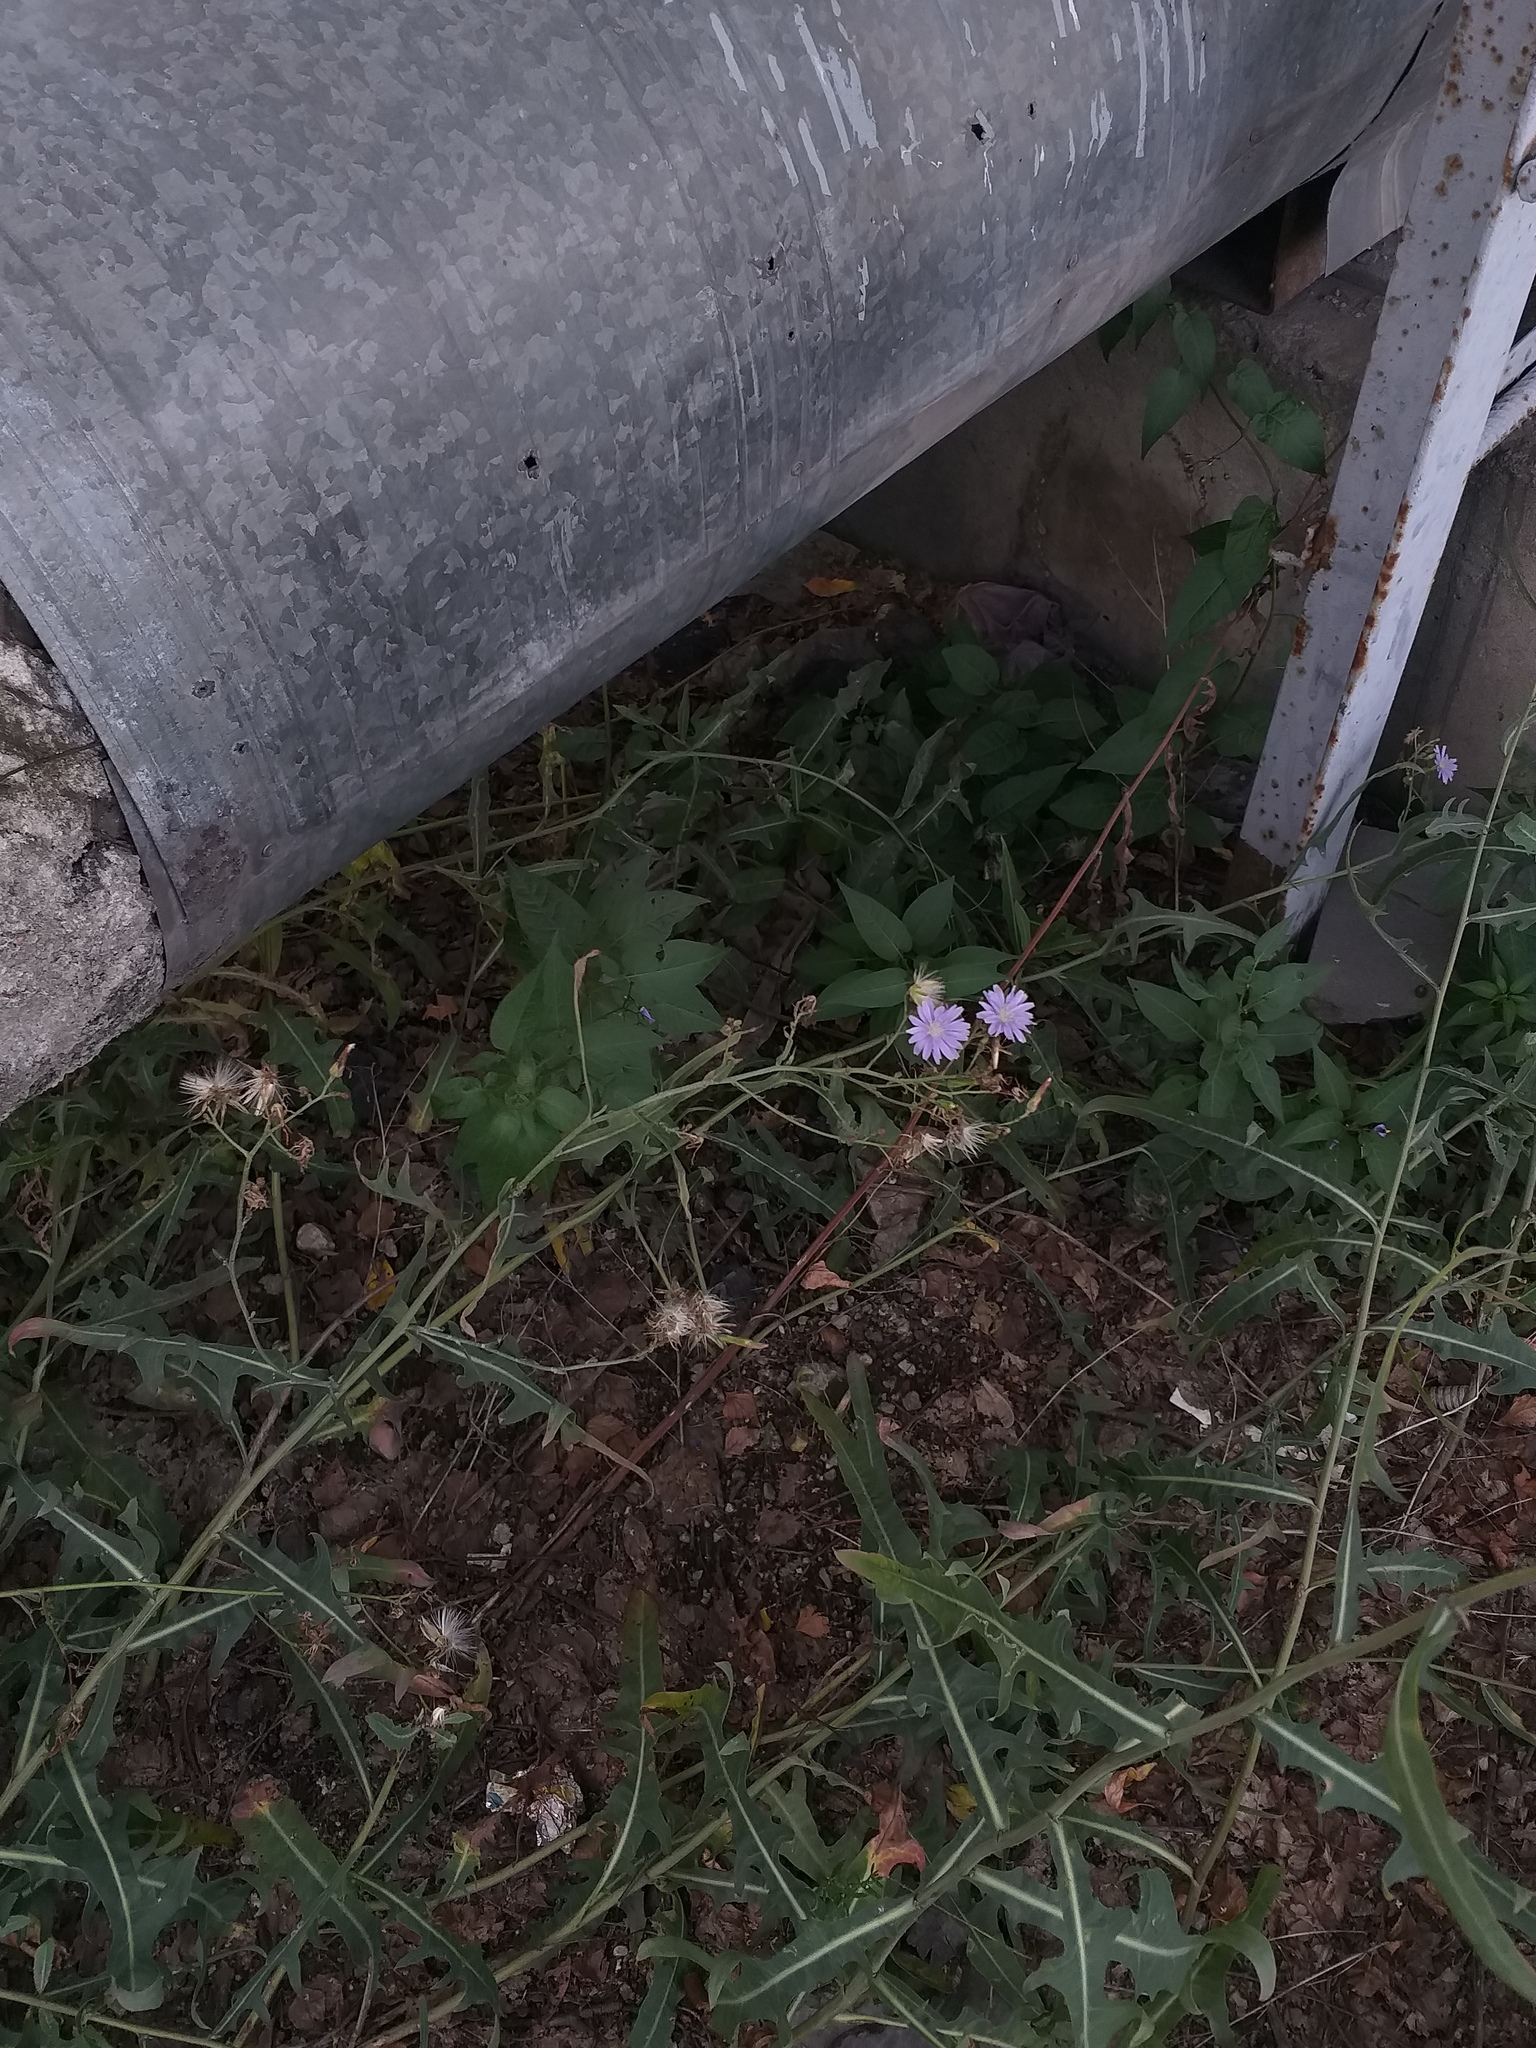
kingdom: Plantae
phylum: Tracheophyta
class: Magnoliopsida
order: Asterales
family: Asteraceae
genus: Lactuca
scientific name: Lactuca tatarica
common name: Blue lettuce
